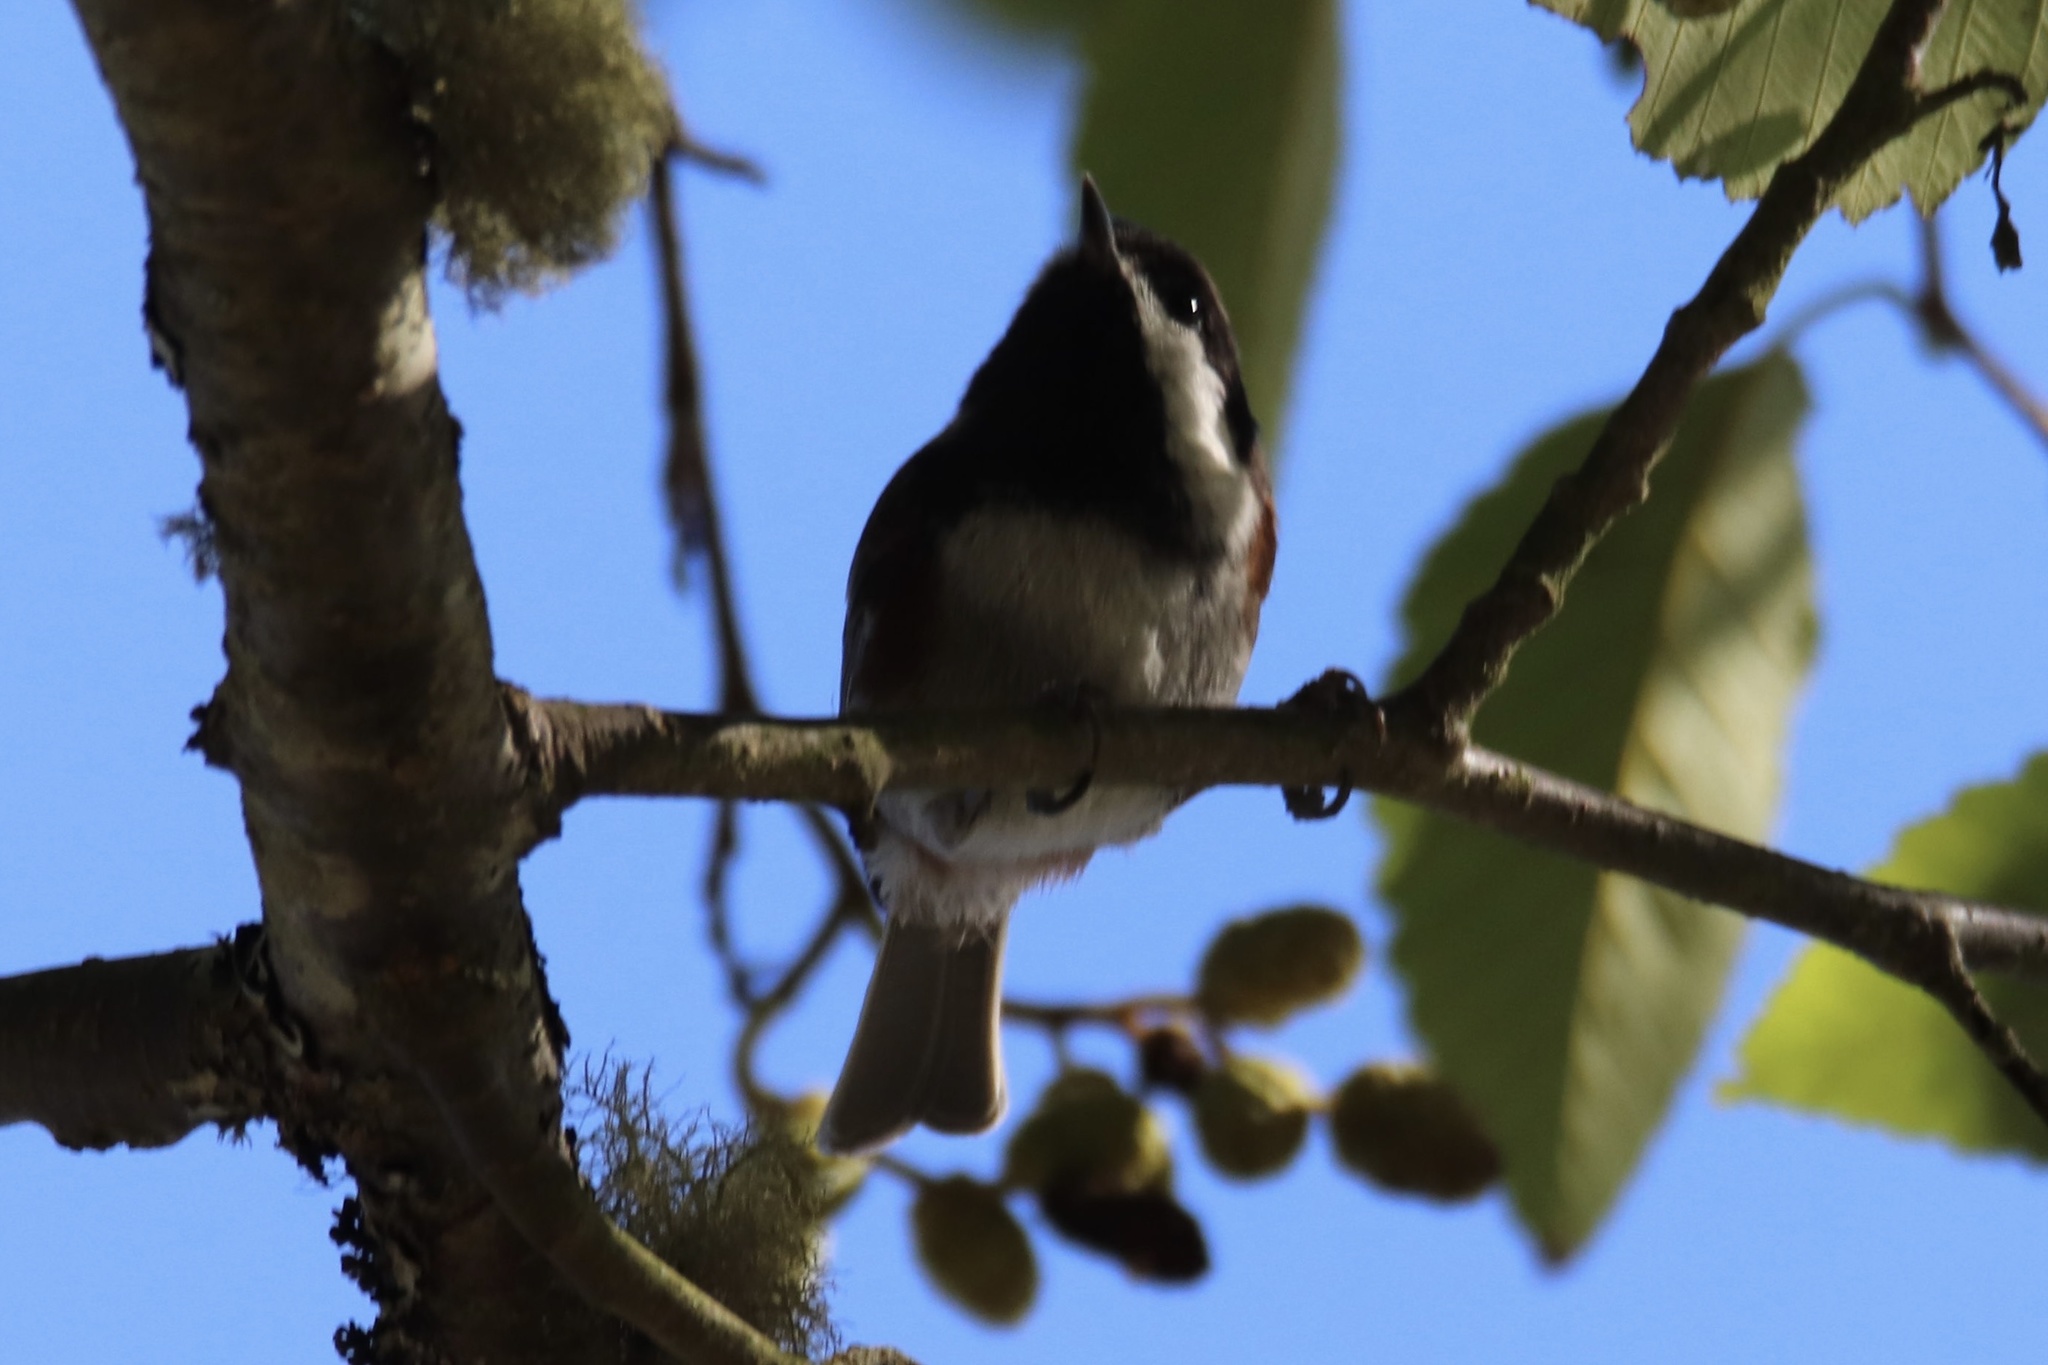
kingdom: Animalia
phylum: Chordata
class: Aves
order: Passeriformes
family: Paridae
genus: Poecile
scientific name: Poecile rufescens
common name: Chestnut-backed chickadee
